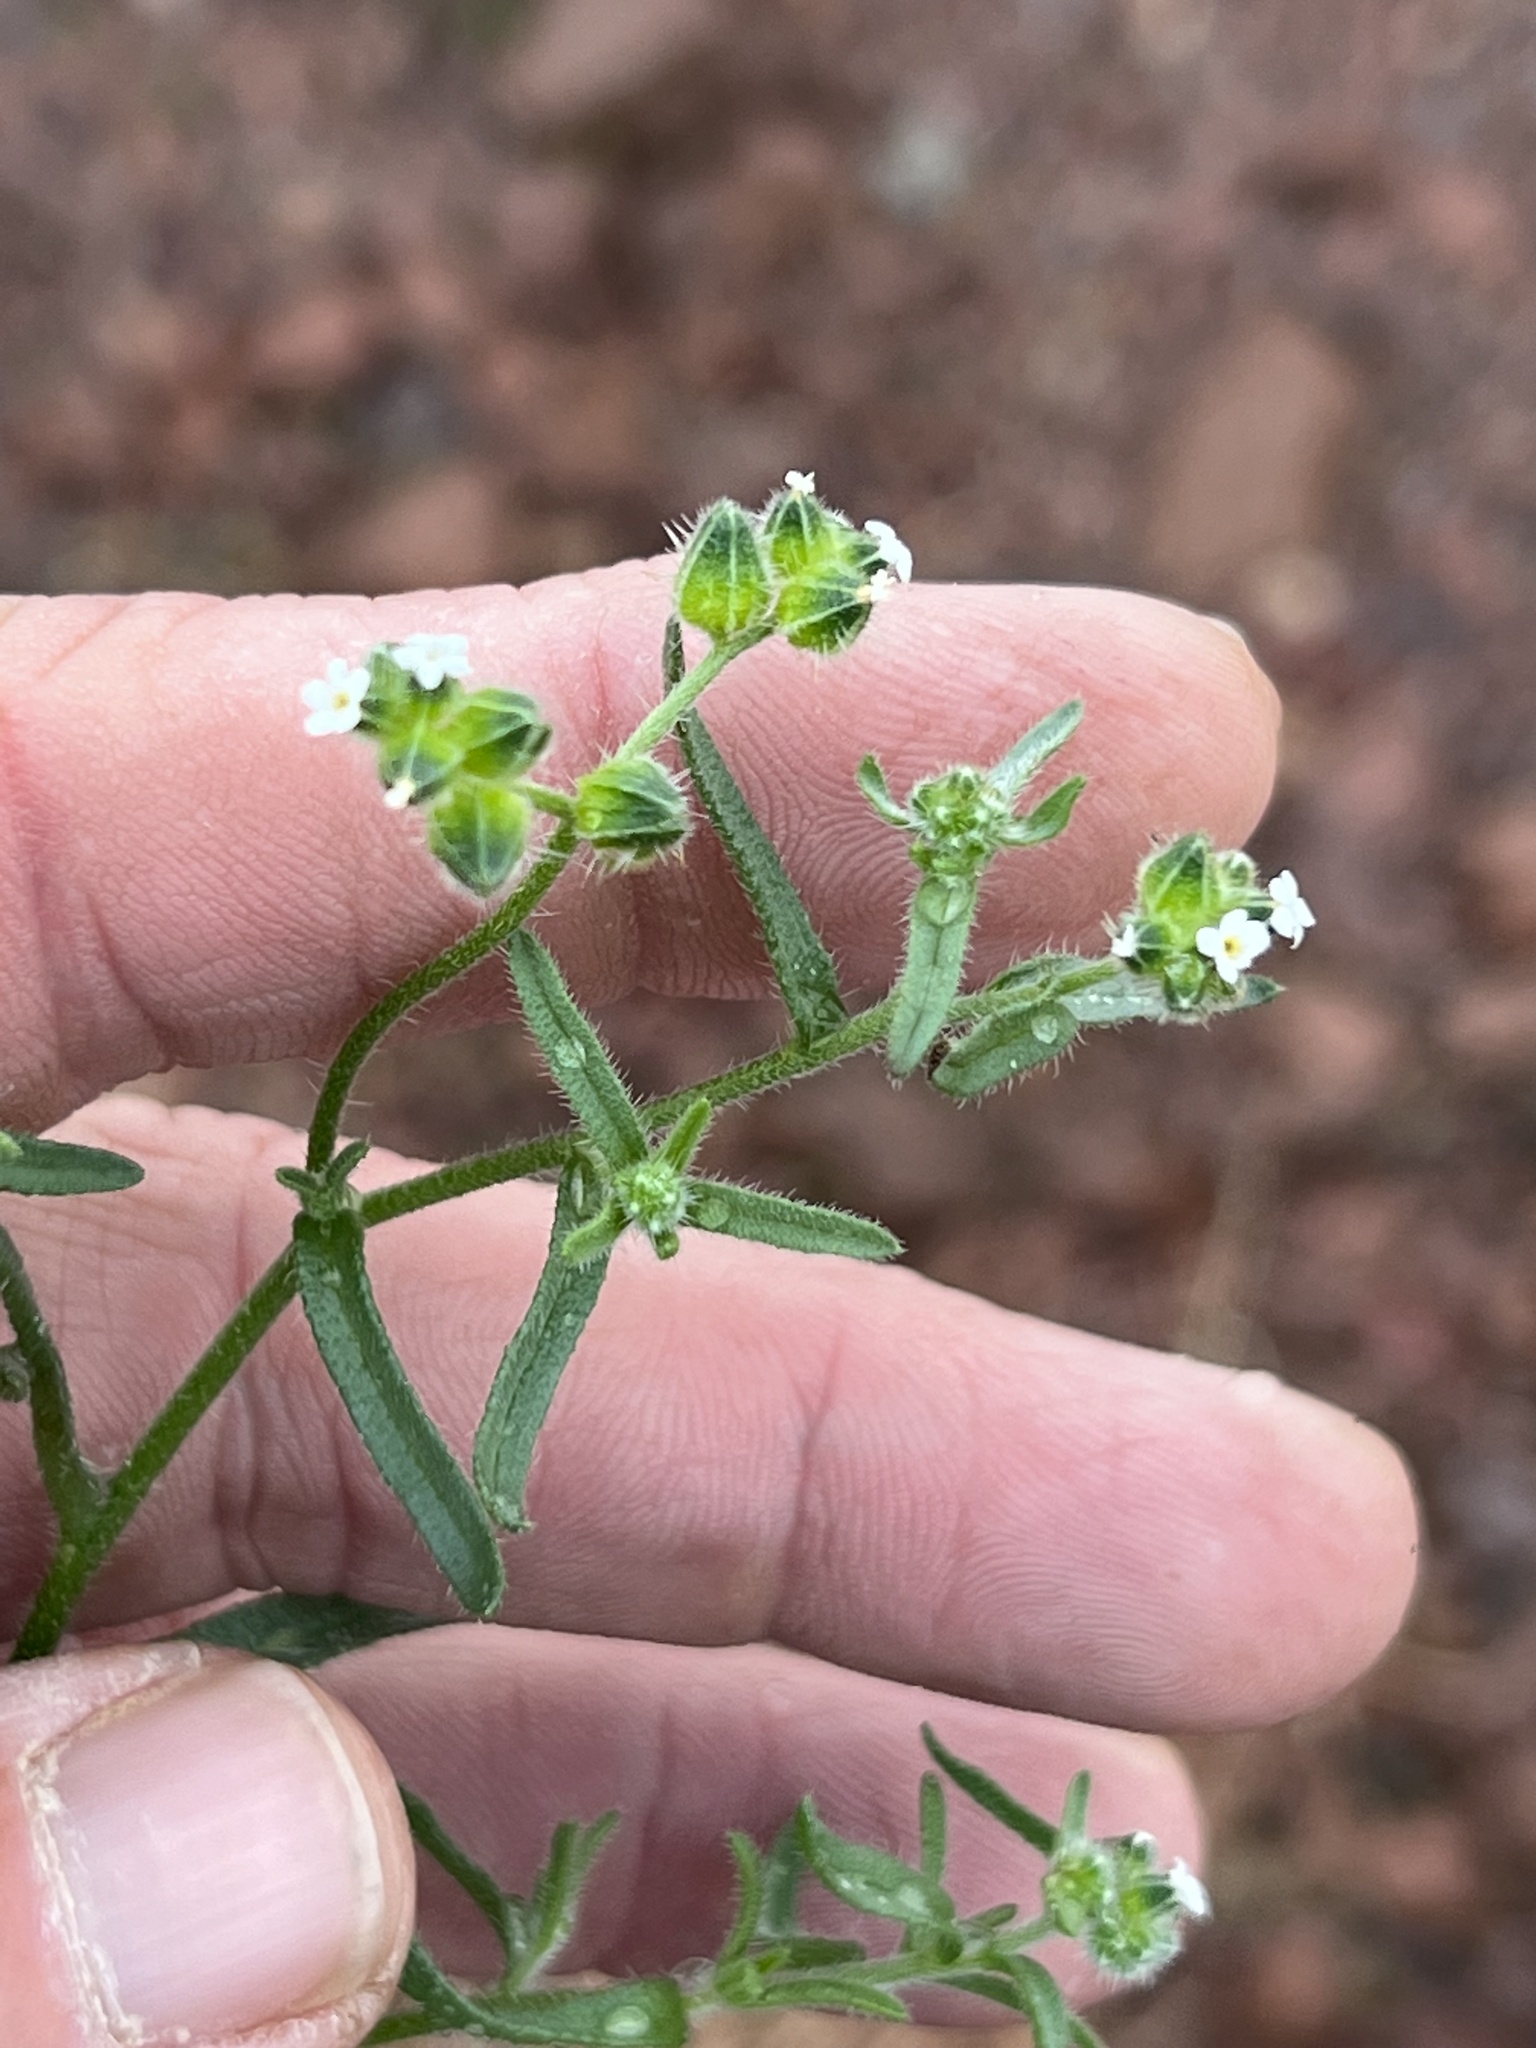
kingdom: Plantae
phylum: Tracheophyta
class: Magnoliopsida
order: Boraginales
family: Boraginaceae
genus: Cryptantha
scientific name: Cryptantha pterocarya
